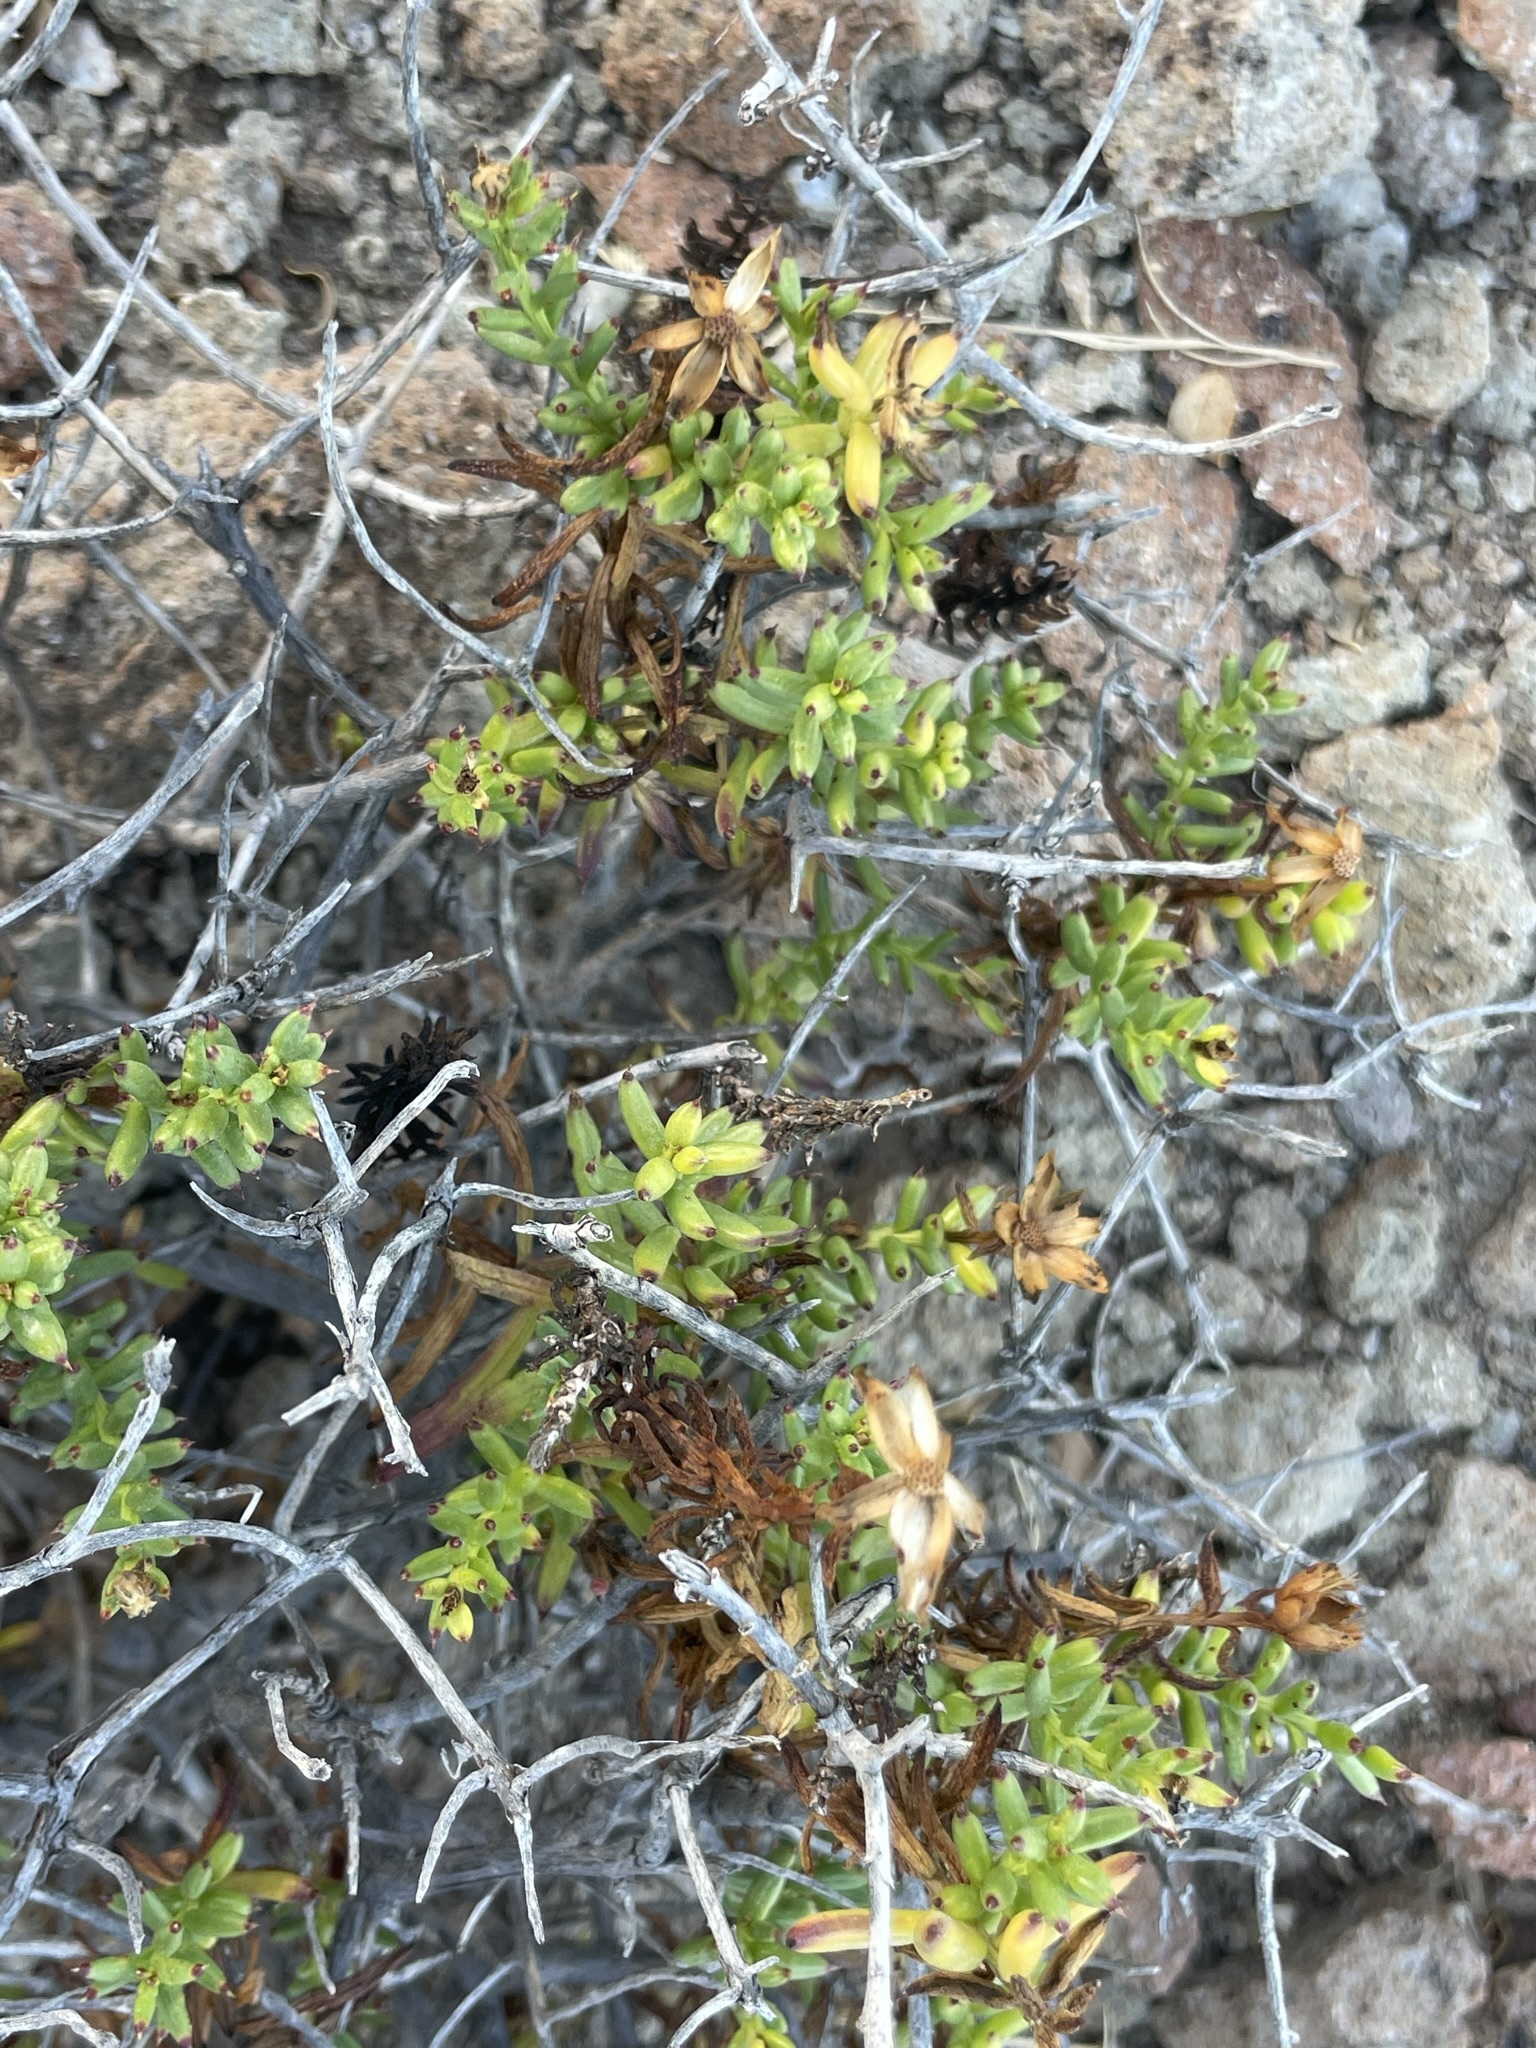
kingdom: Plantae
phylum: Tracheophyta
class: Magnoliopsida
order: Asterales
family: Asteraceae
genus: Bajacalia
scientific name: Bajacalia crassifolia
